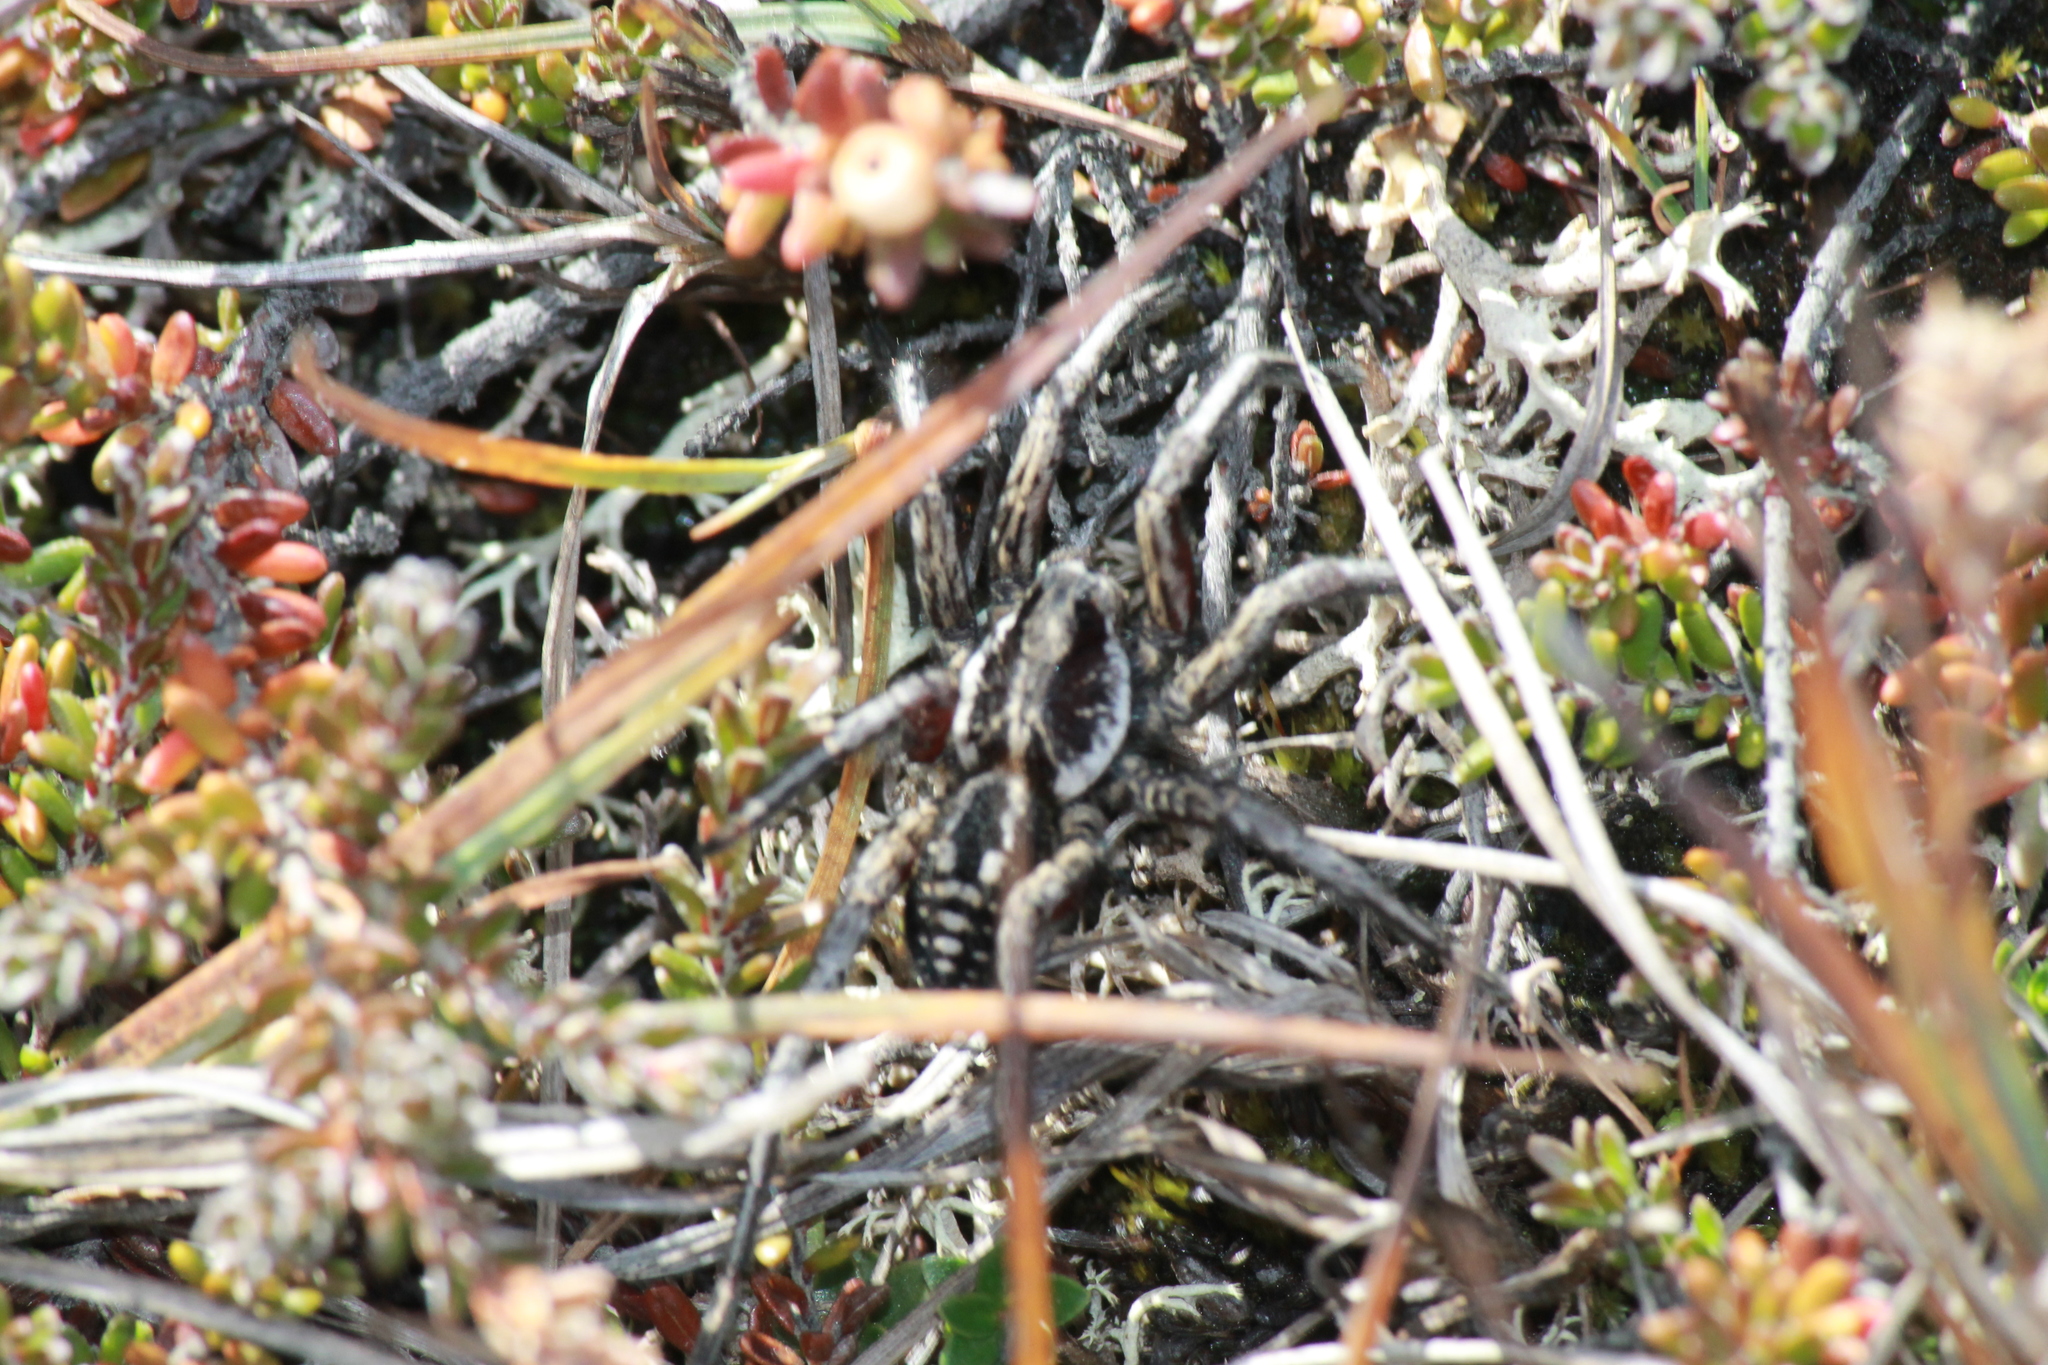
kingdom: Animalia
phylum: Arthropoda
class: Arachnida
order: Araneae
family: Lycosidae
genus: Lycosa
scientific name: Lycosa australis
